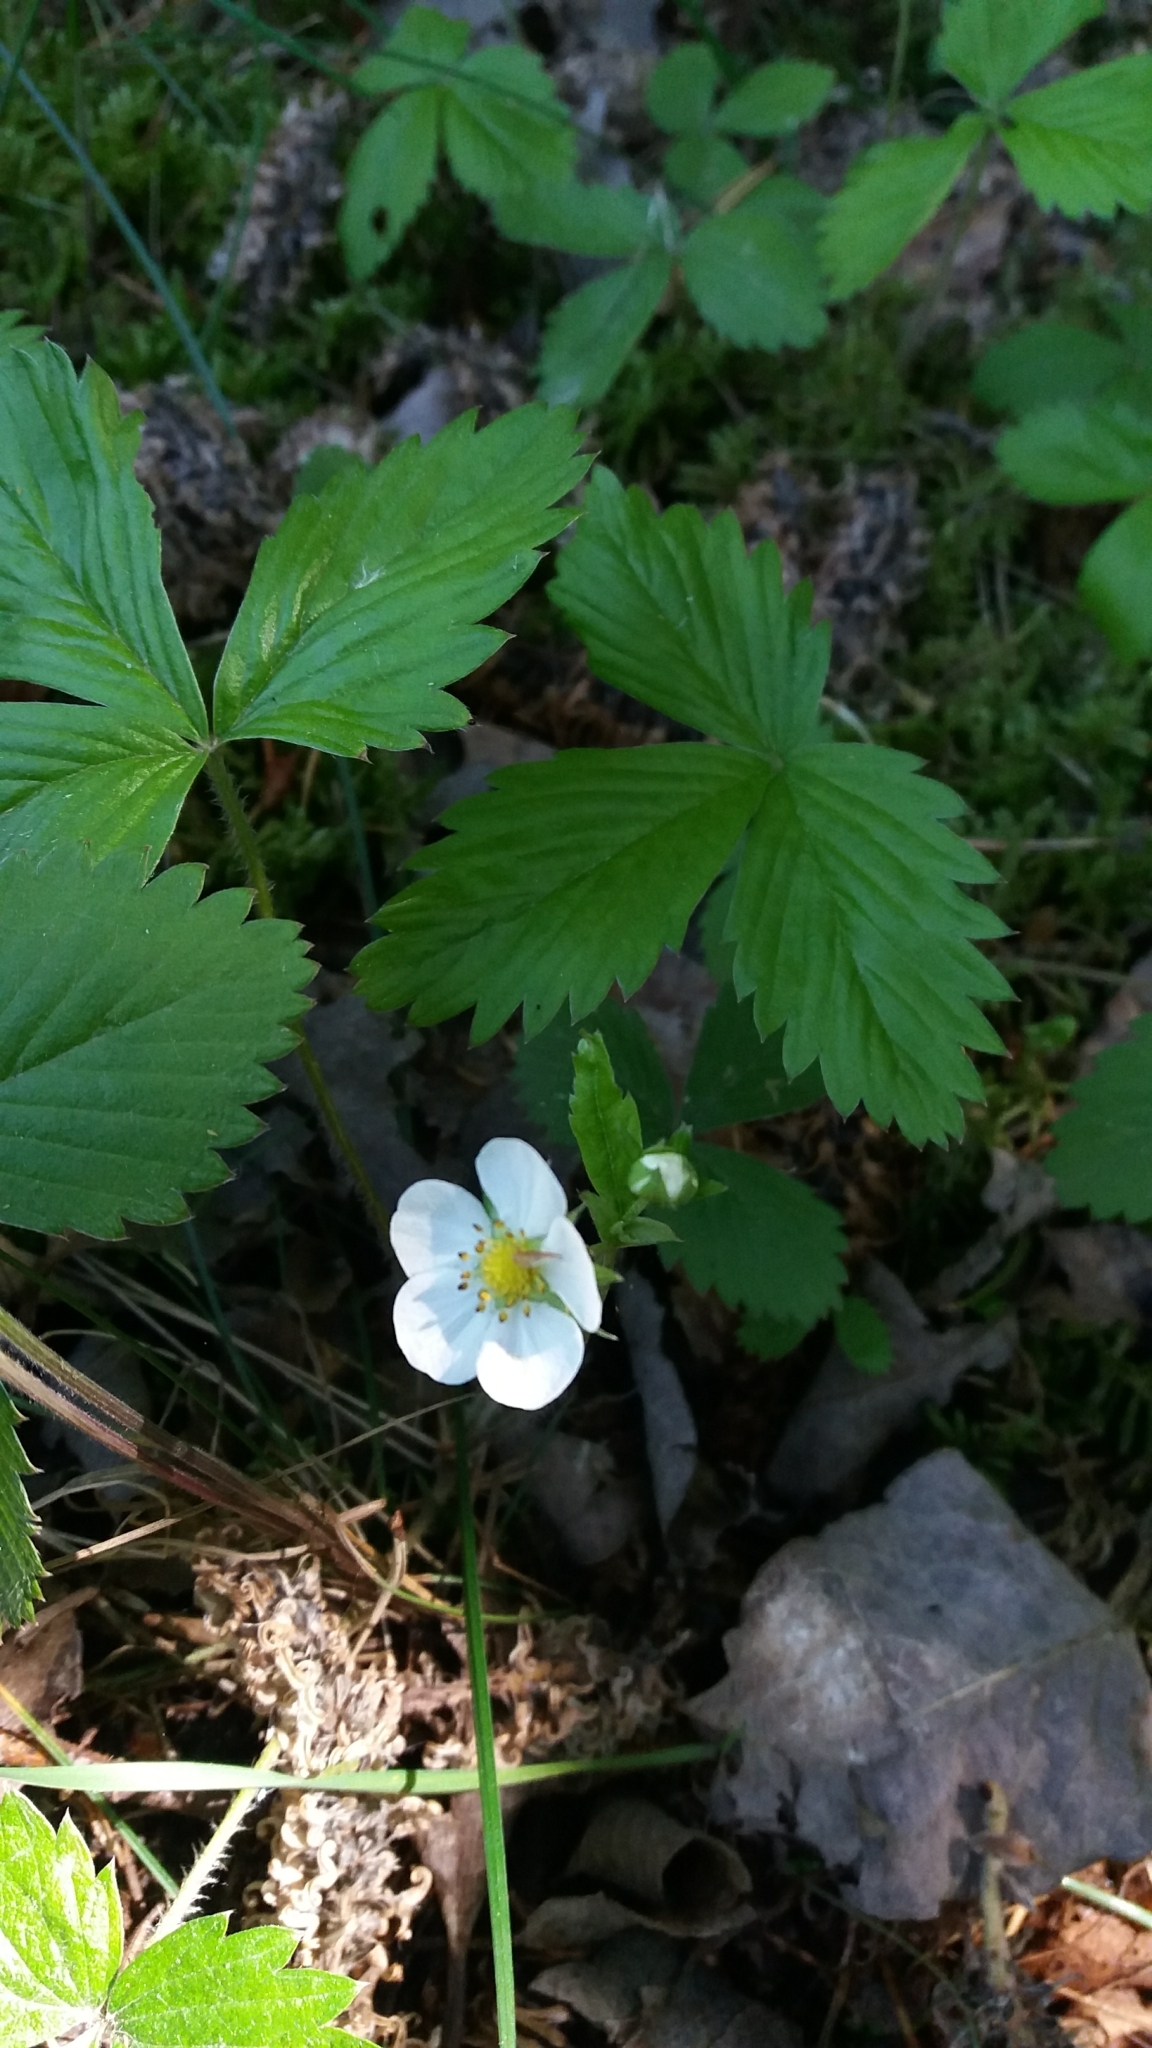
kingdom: Plantae
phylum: Tracheophyta
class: Magnoliopsida
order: Rosales
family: Rosaceae
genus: Fragaria
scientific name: Fragaria vesca
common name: Wild strawberry
